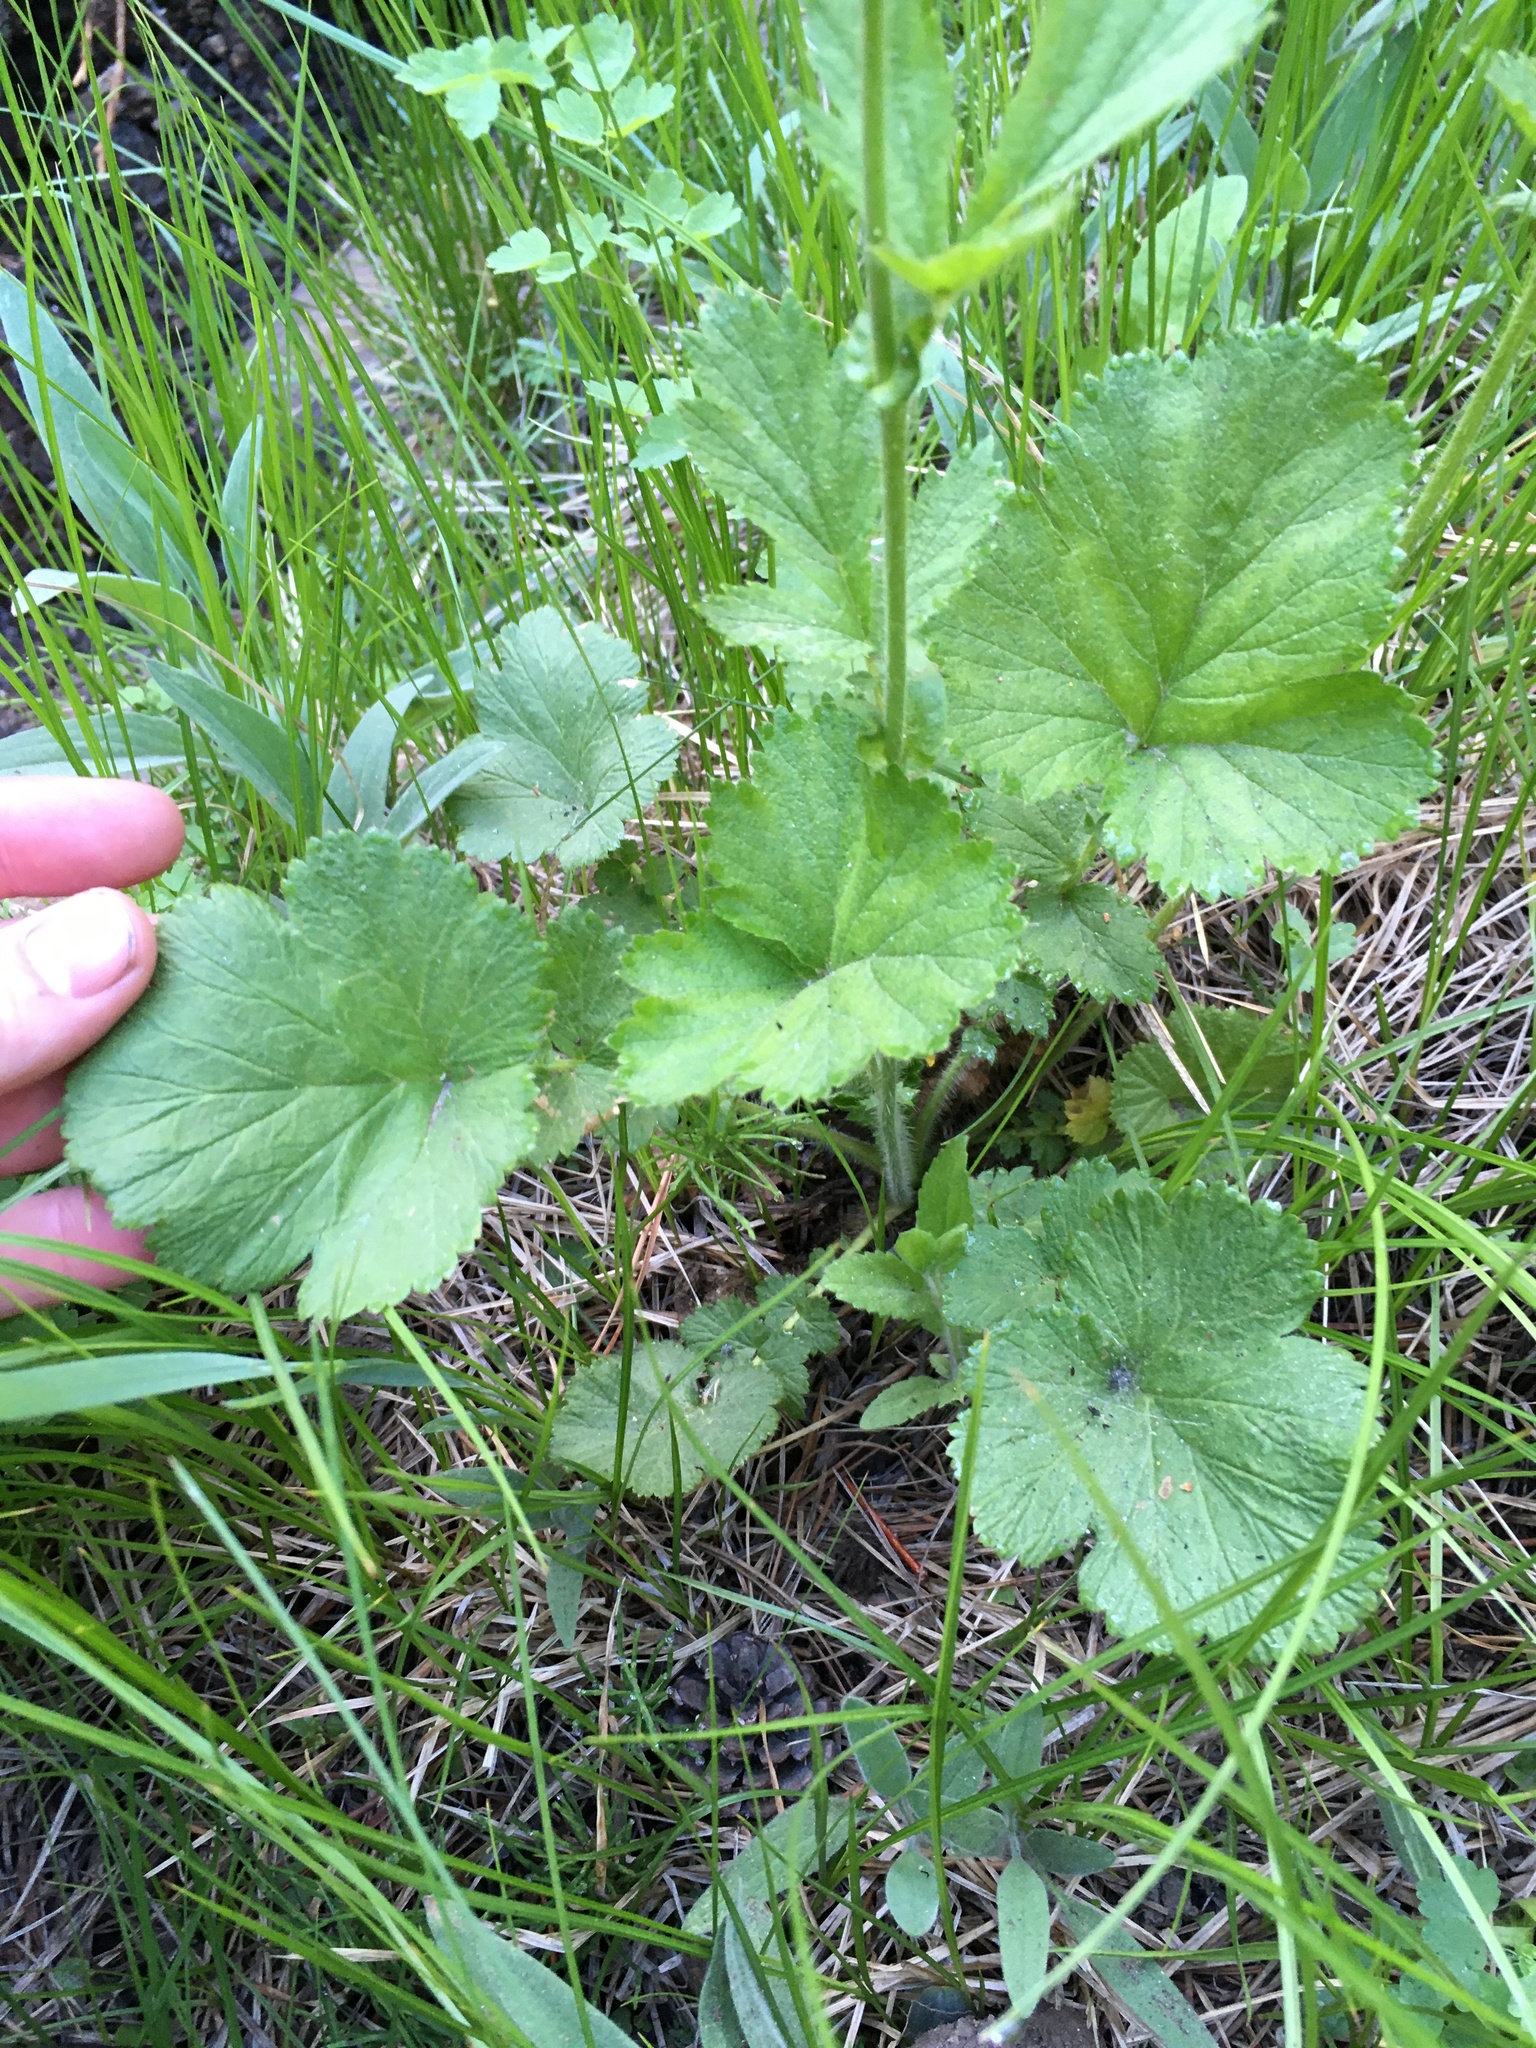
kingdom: Plantae
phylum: Tracheophyta
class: Magnoliopsida
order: Rosales
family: Rosaceae
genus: Geum
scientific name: Geum macrophyllum
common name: Large-leaved avens
